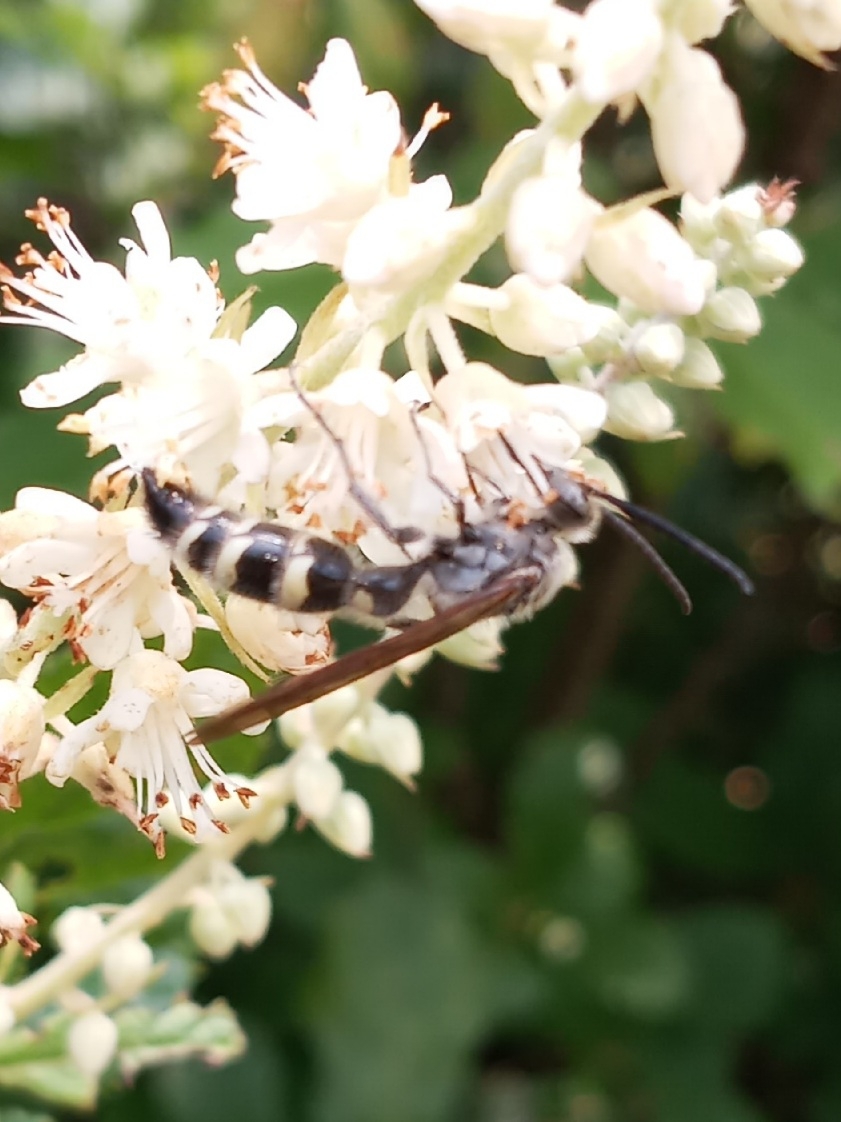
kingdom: Animalia
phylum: Arthropoda
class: Insecta
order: Hymenoptera
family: Scoliidae
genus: Dielis
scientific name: Dielis
